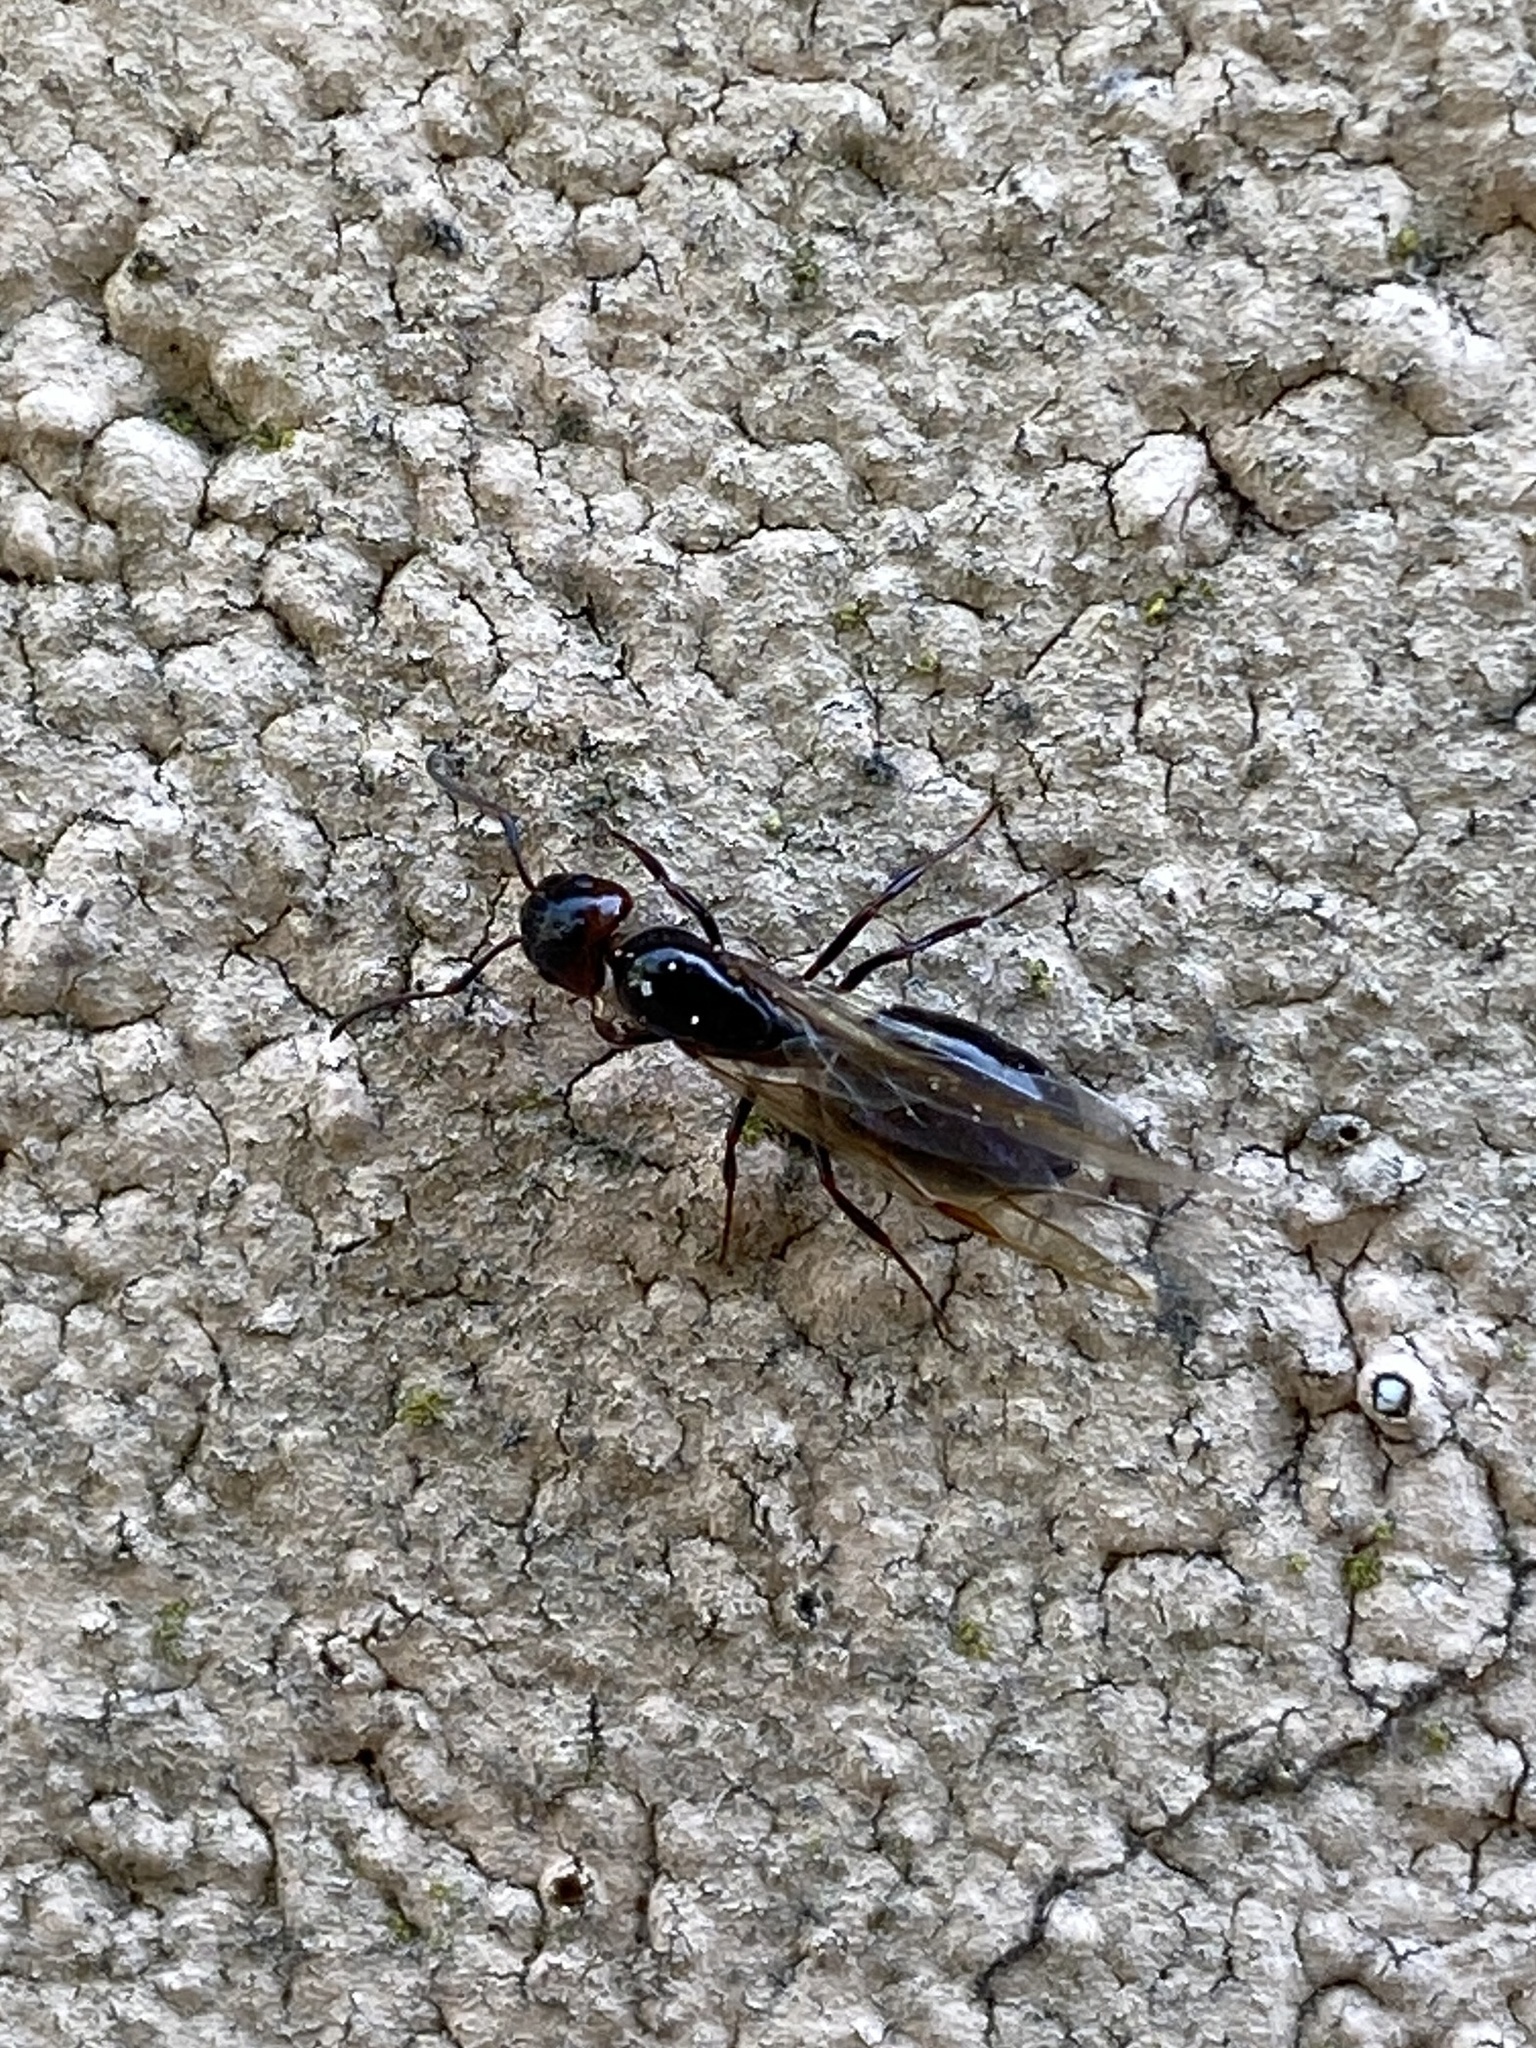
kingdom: Animalia
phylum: Arthropoda
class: Insecta
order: Hymenoptera
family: Formicidae
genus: Camponotus
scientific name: Camponotus lateralis
